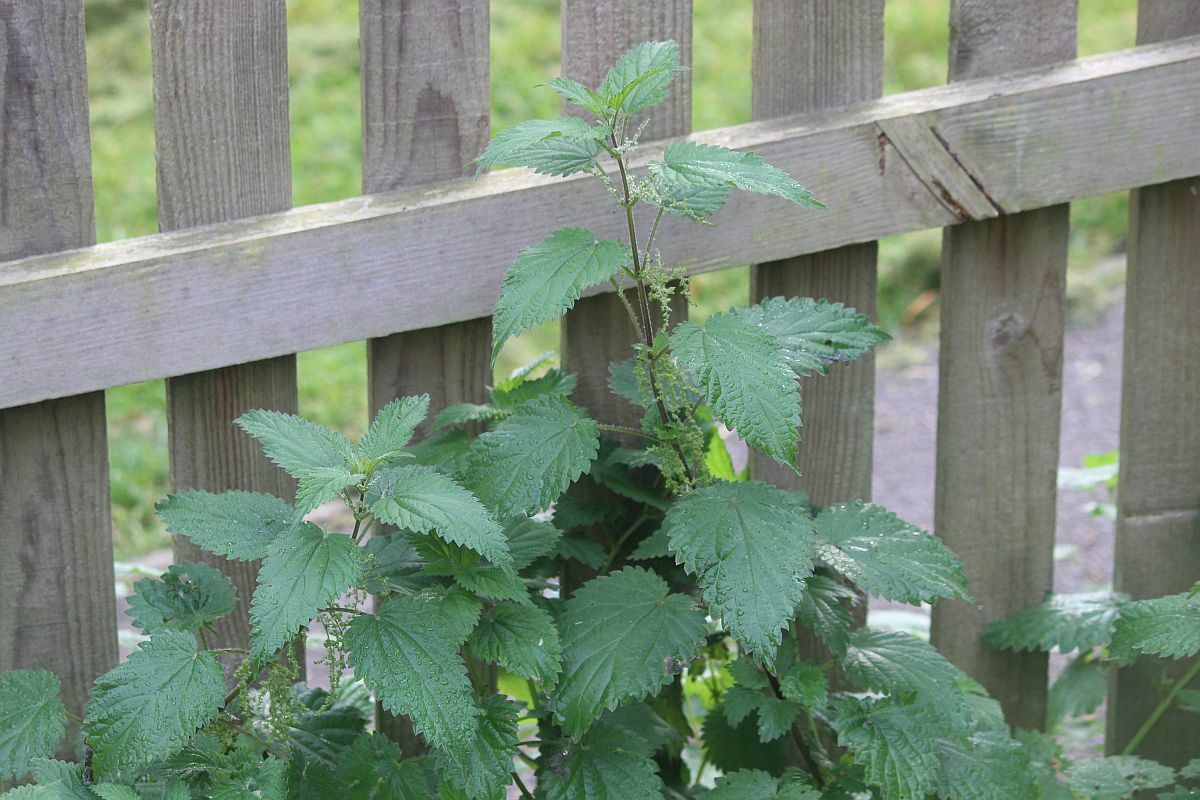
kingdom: Plantae
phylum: Tracheophyta
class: Magnoliopsida
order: Rosales
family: Urticaceae
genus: Urtica
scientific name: Urtica dioica
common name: Common nettle
